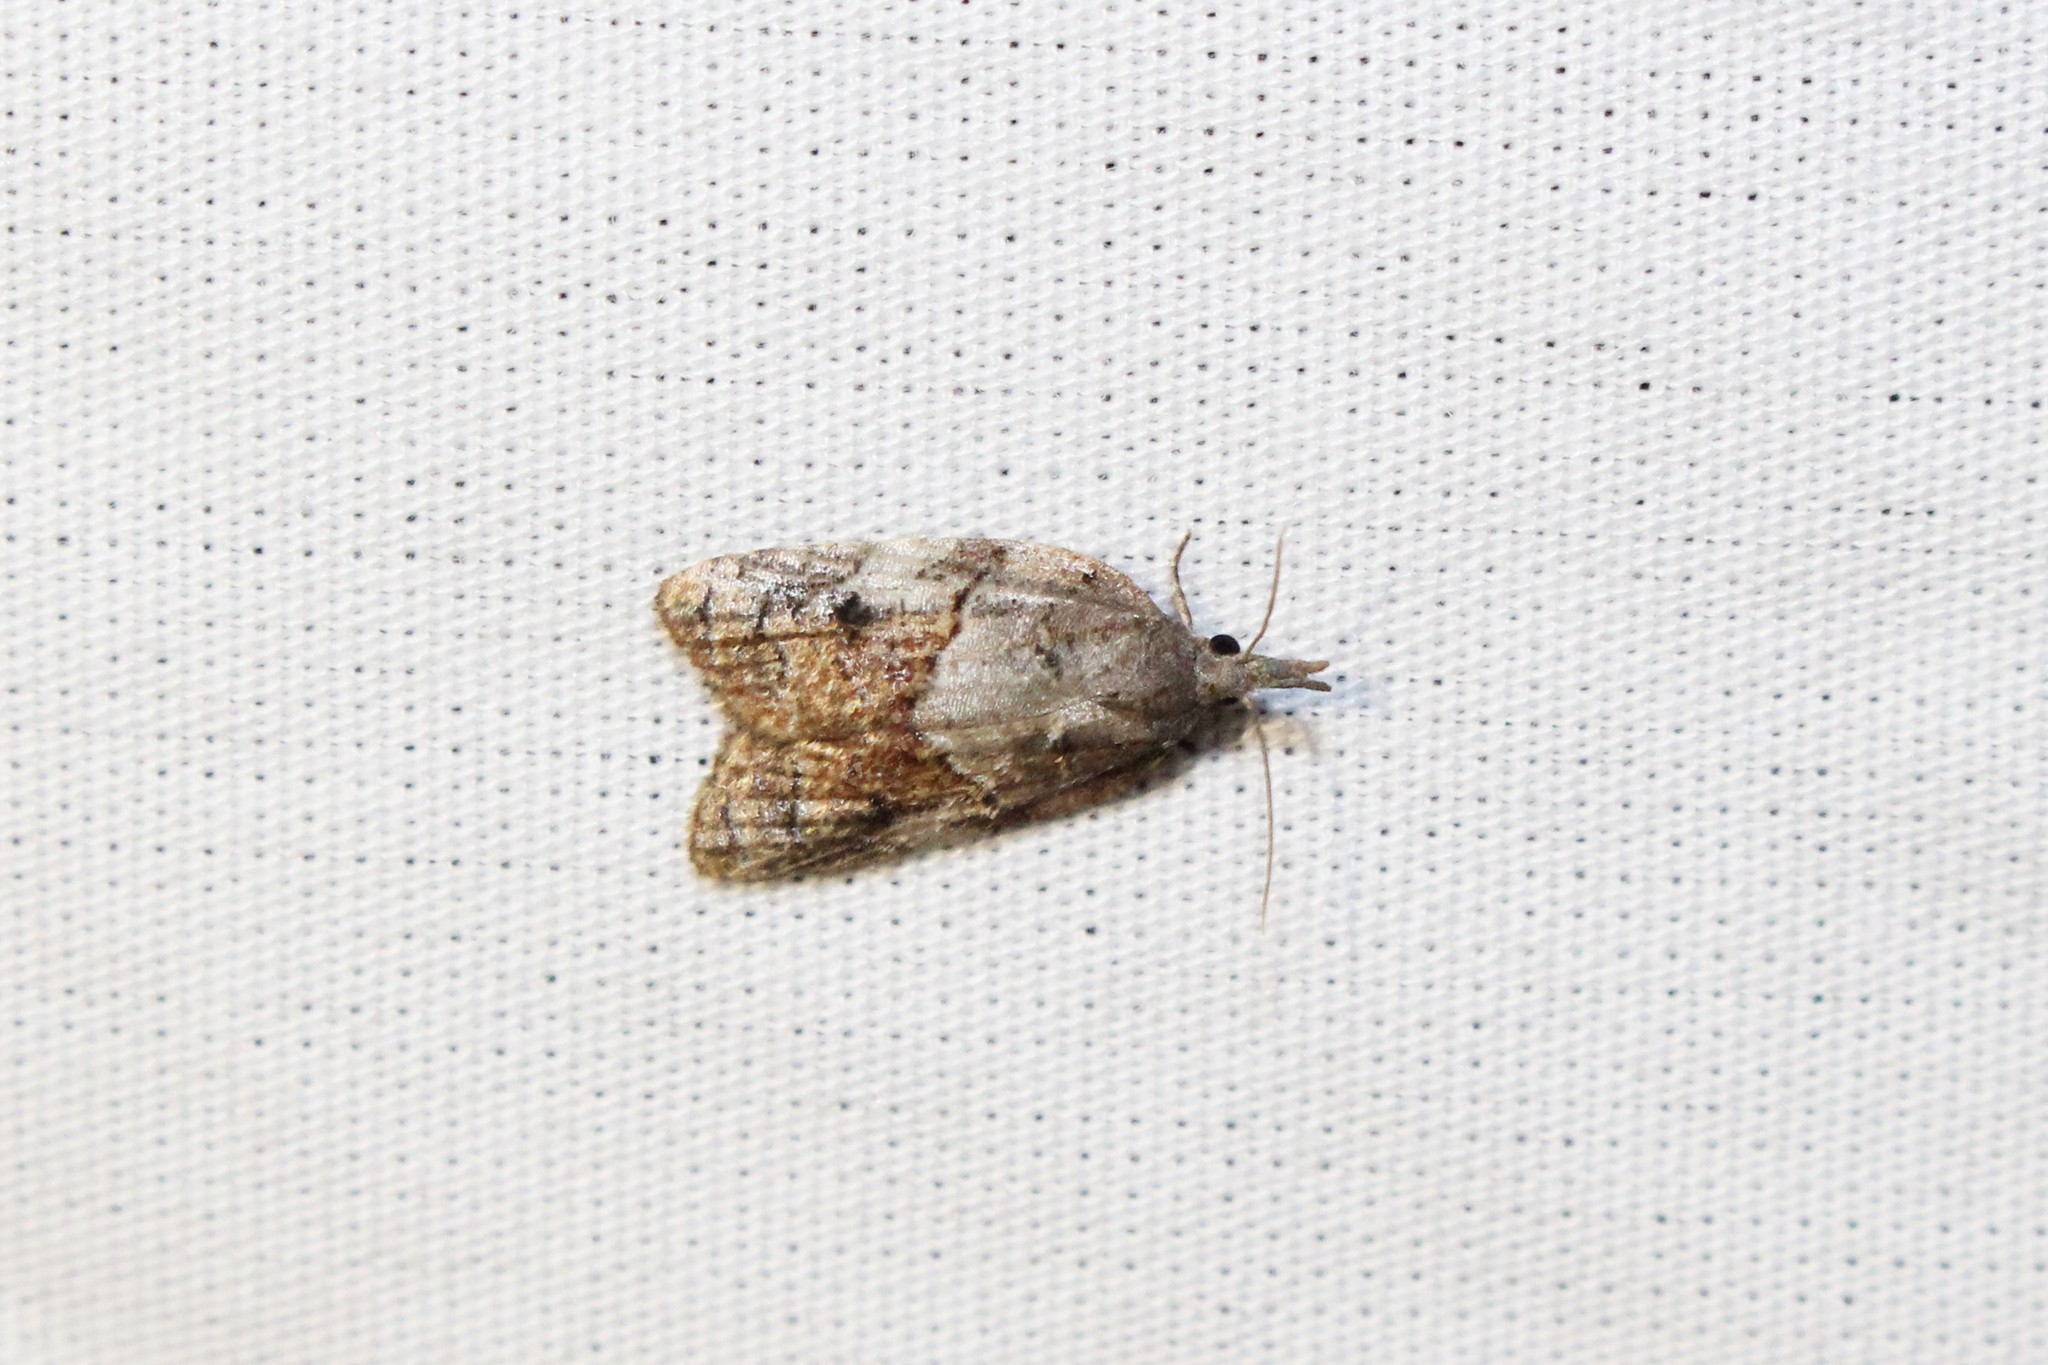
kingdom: Animalia
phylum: Arthropoda
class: Insecta
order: Lepidoptera
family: Tortricidae
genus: Platynota
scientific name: Platynota idaeusalis
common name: Tufted apple bud moth
